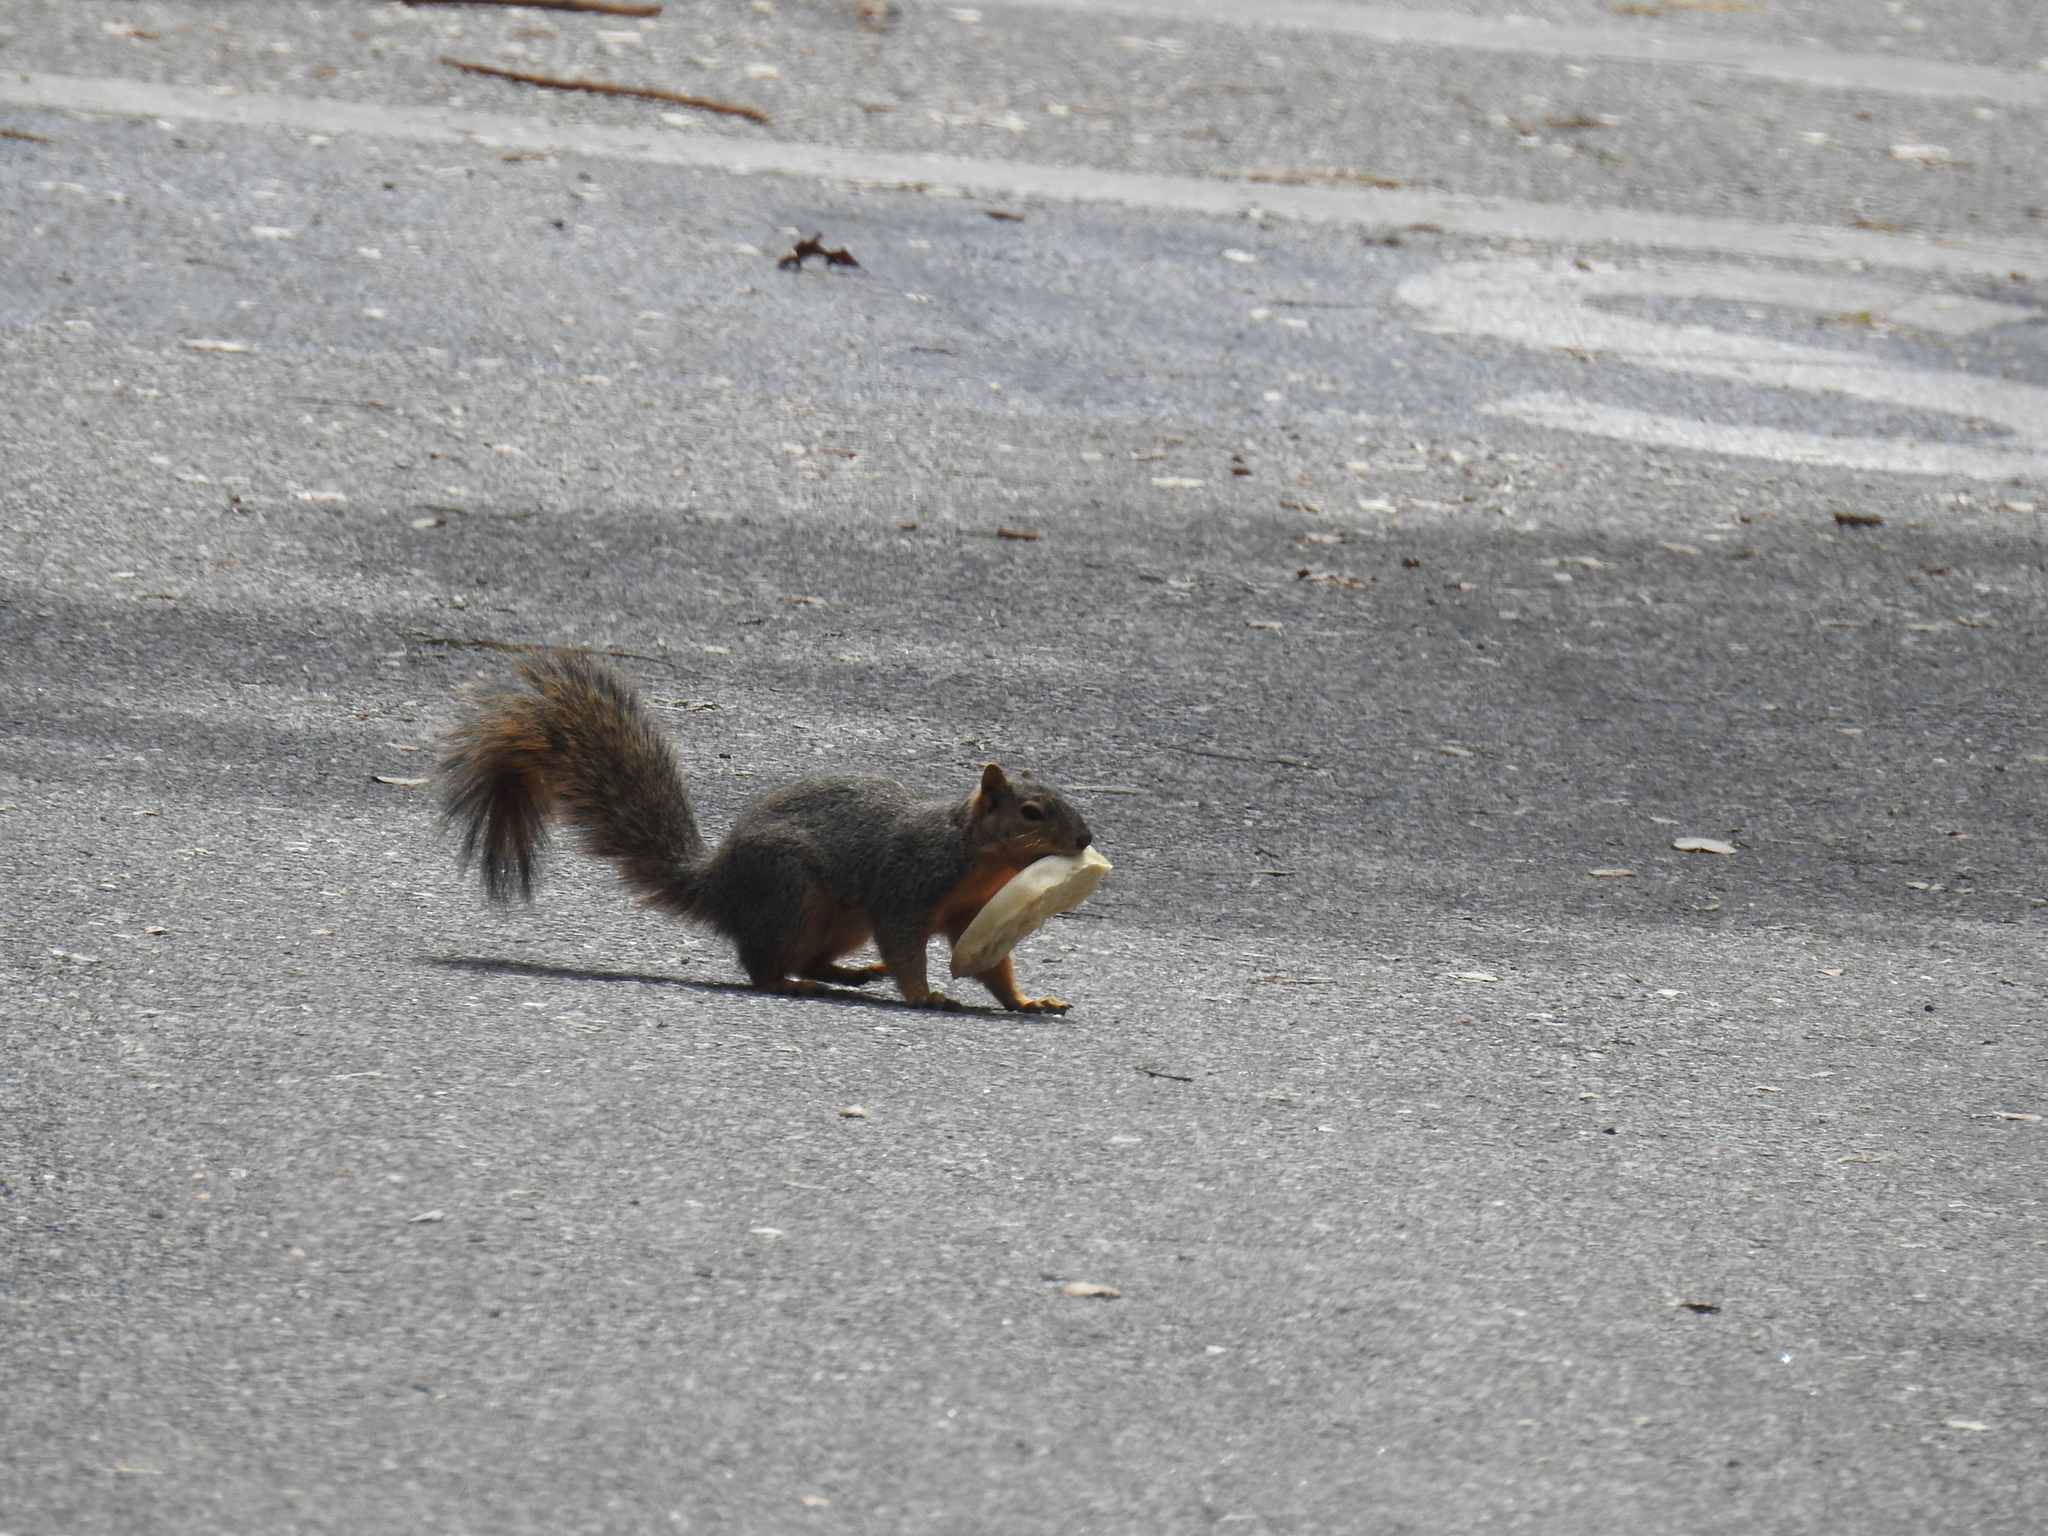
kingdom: Animalia
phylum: Chordata
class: Mammalia
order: Rodentia
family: Sciuridae
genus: Sciurus
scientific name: Sciurus niger
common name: Fox squirrel
